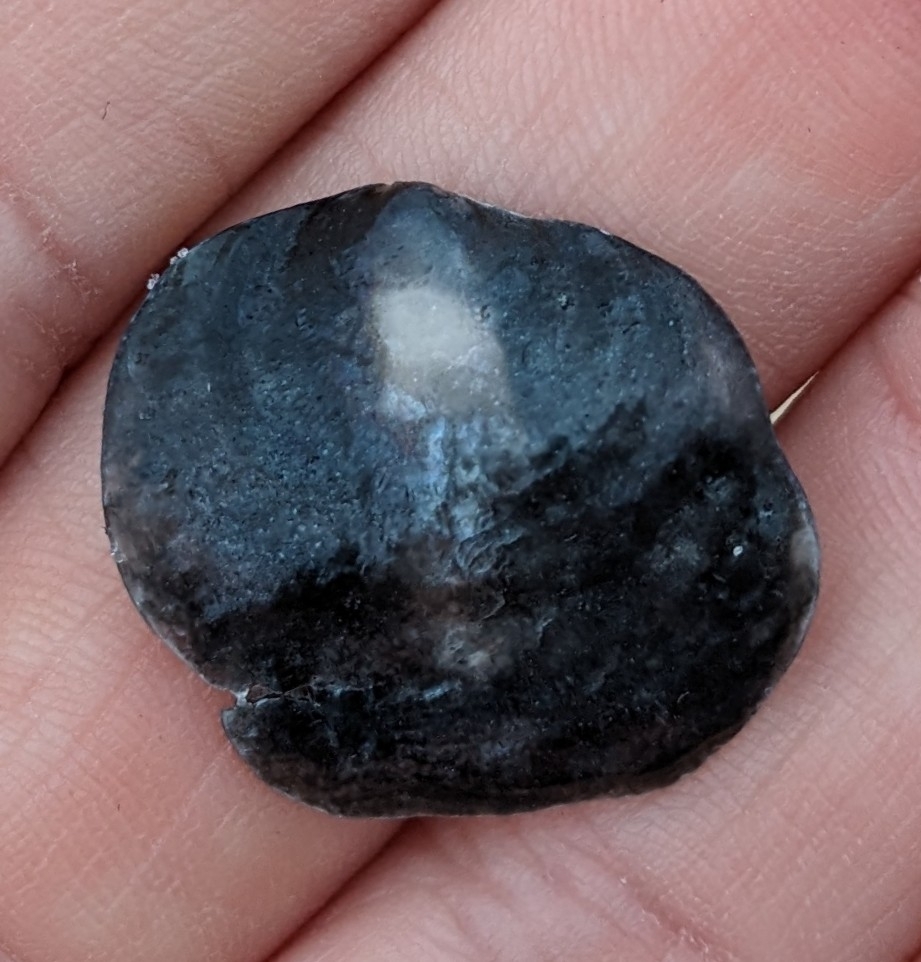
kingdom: Animalia
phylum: Mollusca
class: Bivalvia
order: Pectinida
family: Anomiidae
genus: Anomia
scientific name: Anomia simplex
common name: Common jingle shell
